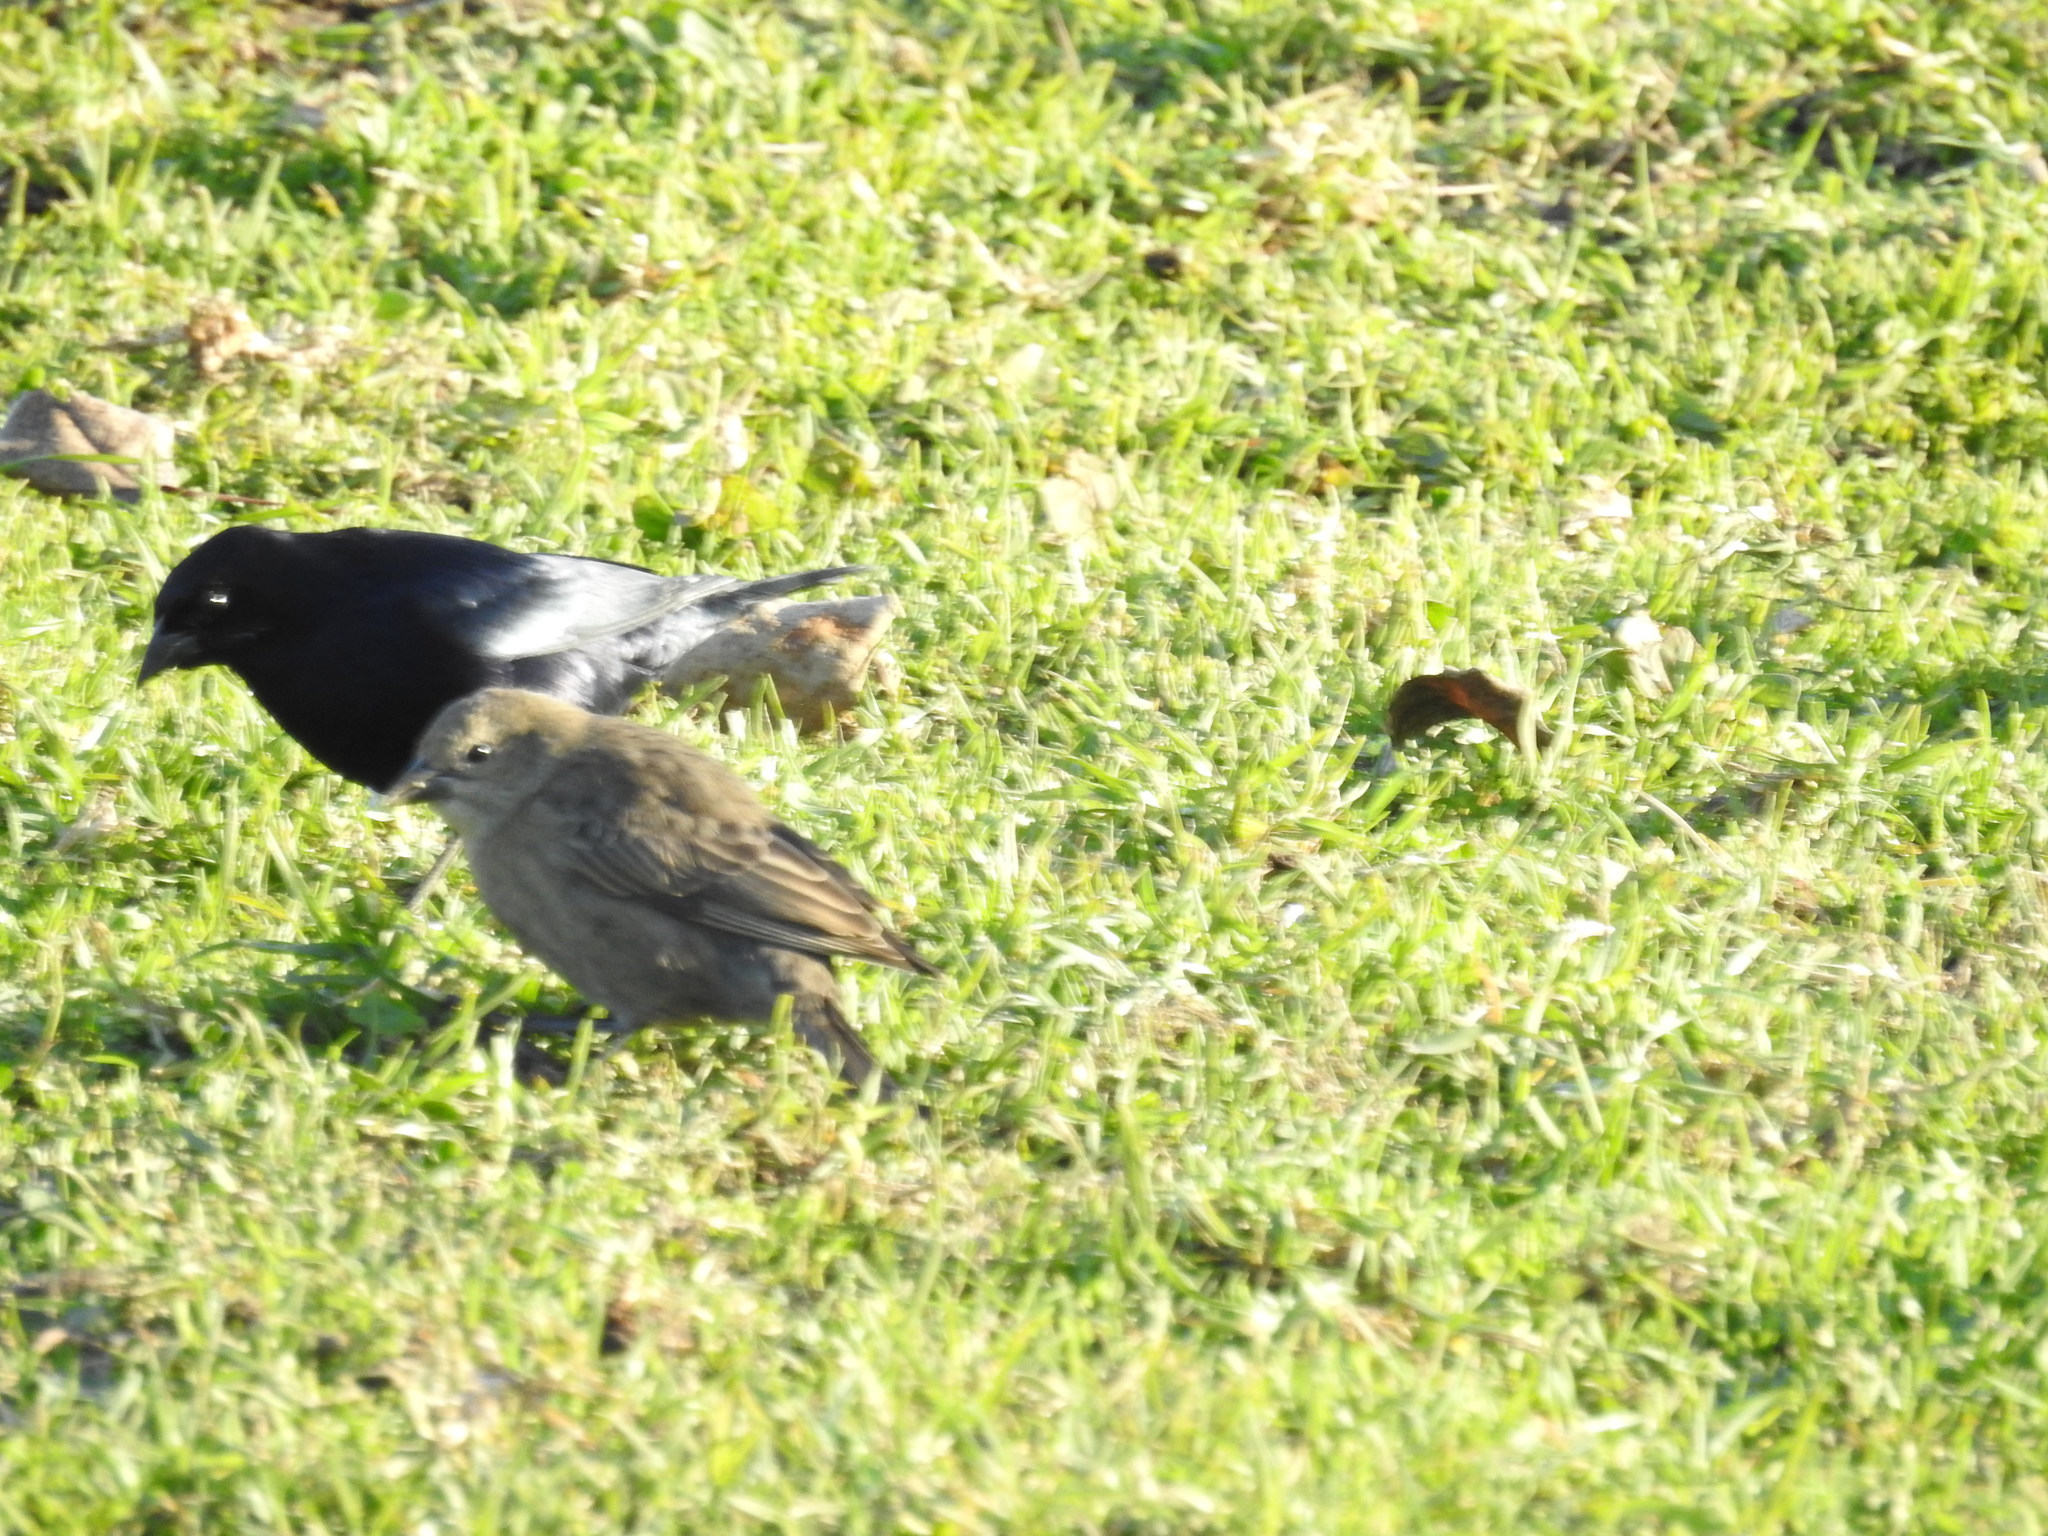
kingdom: Animalia
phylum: Chordata
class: Aves
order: Passeriformes
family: Icteridae
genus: Molothrus
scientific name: Molothrus bonariensis
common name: Shiny cowbird
